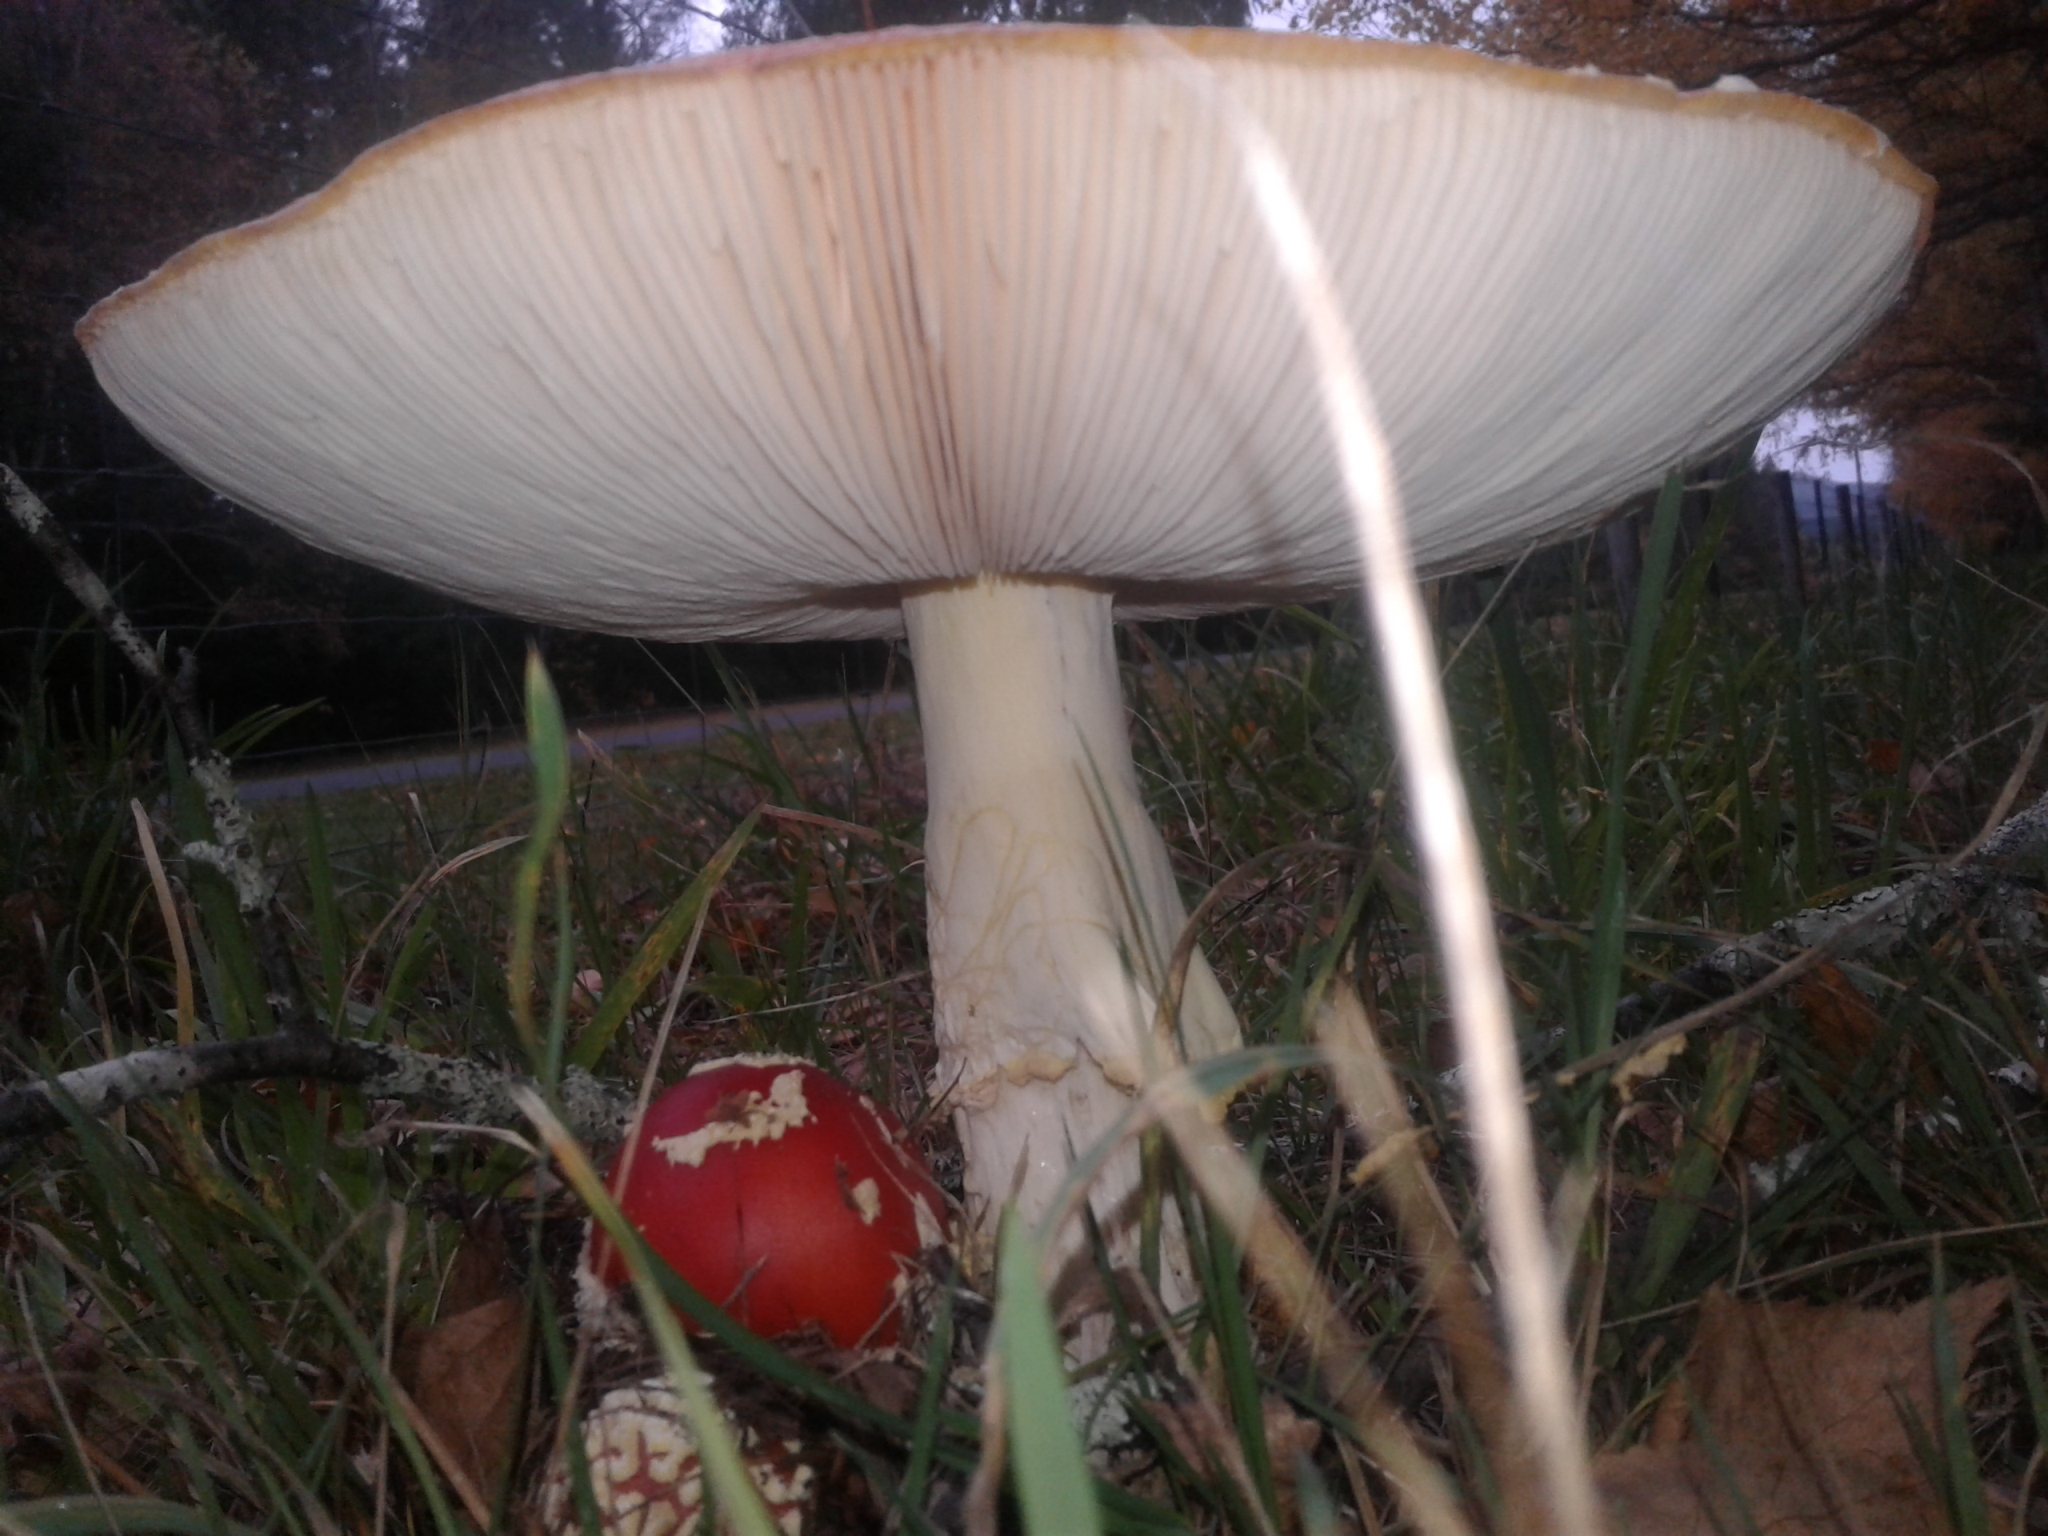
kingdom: Fungi
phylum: Basidiomycota
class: Agaricomycetes
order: Agaricales
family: Amanitaceae
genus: Amanita
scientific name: Amanita muscaria
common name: Fly agaric
